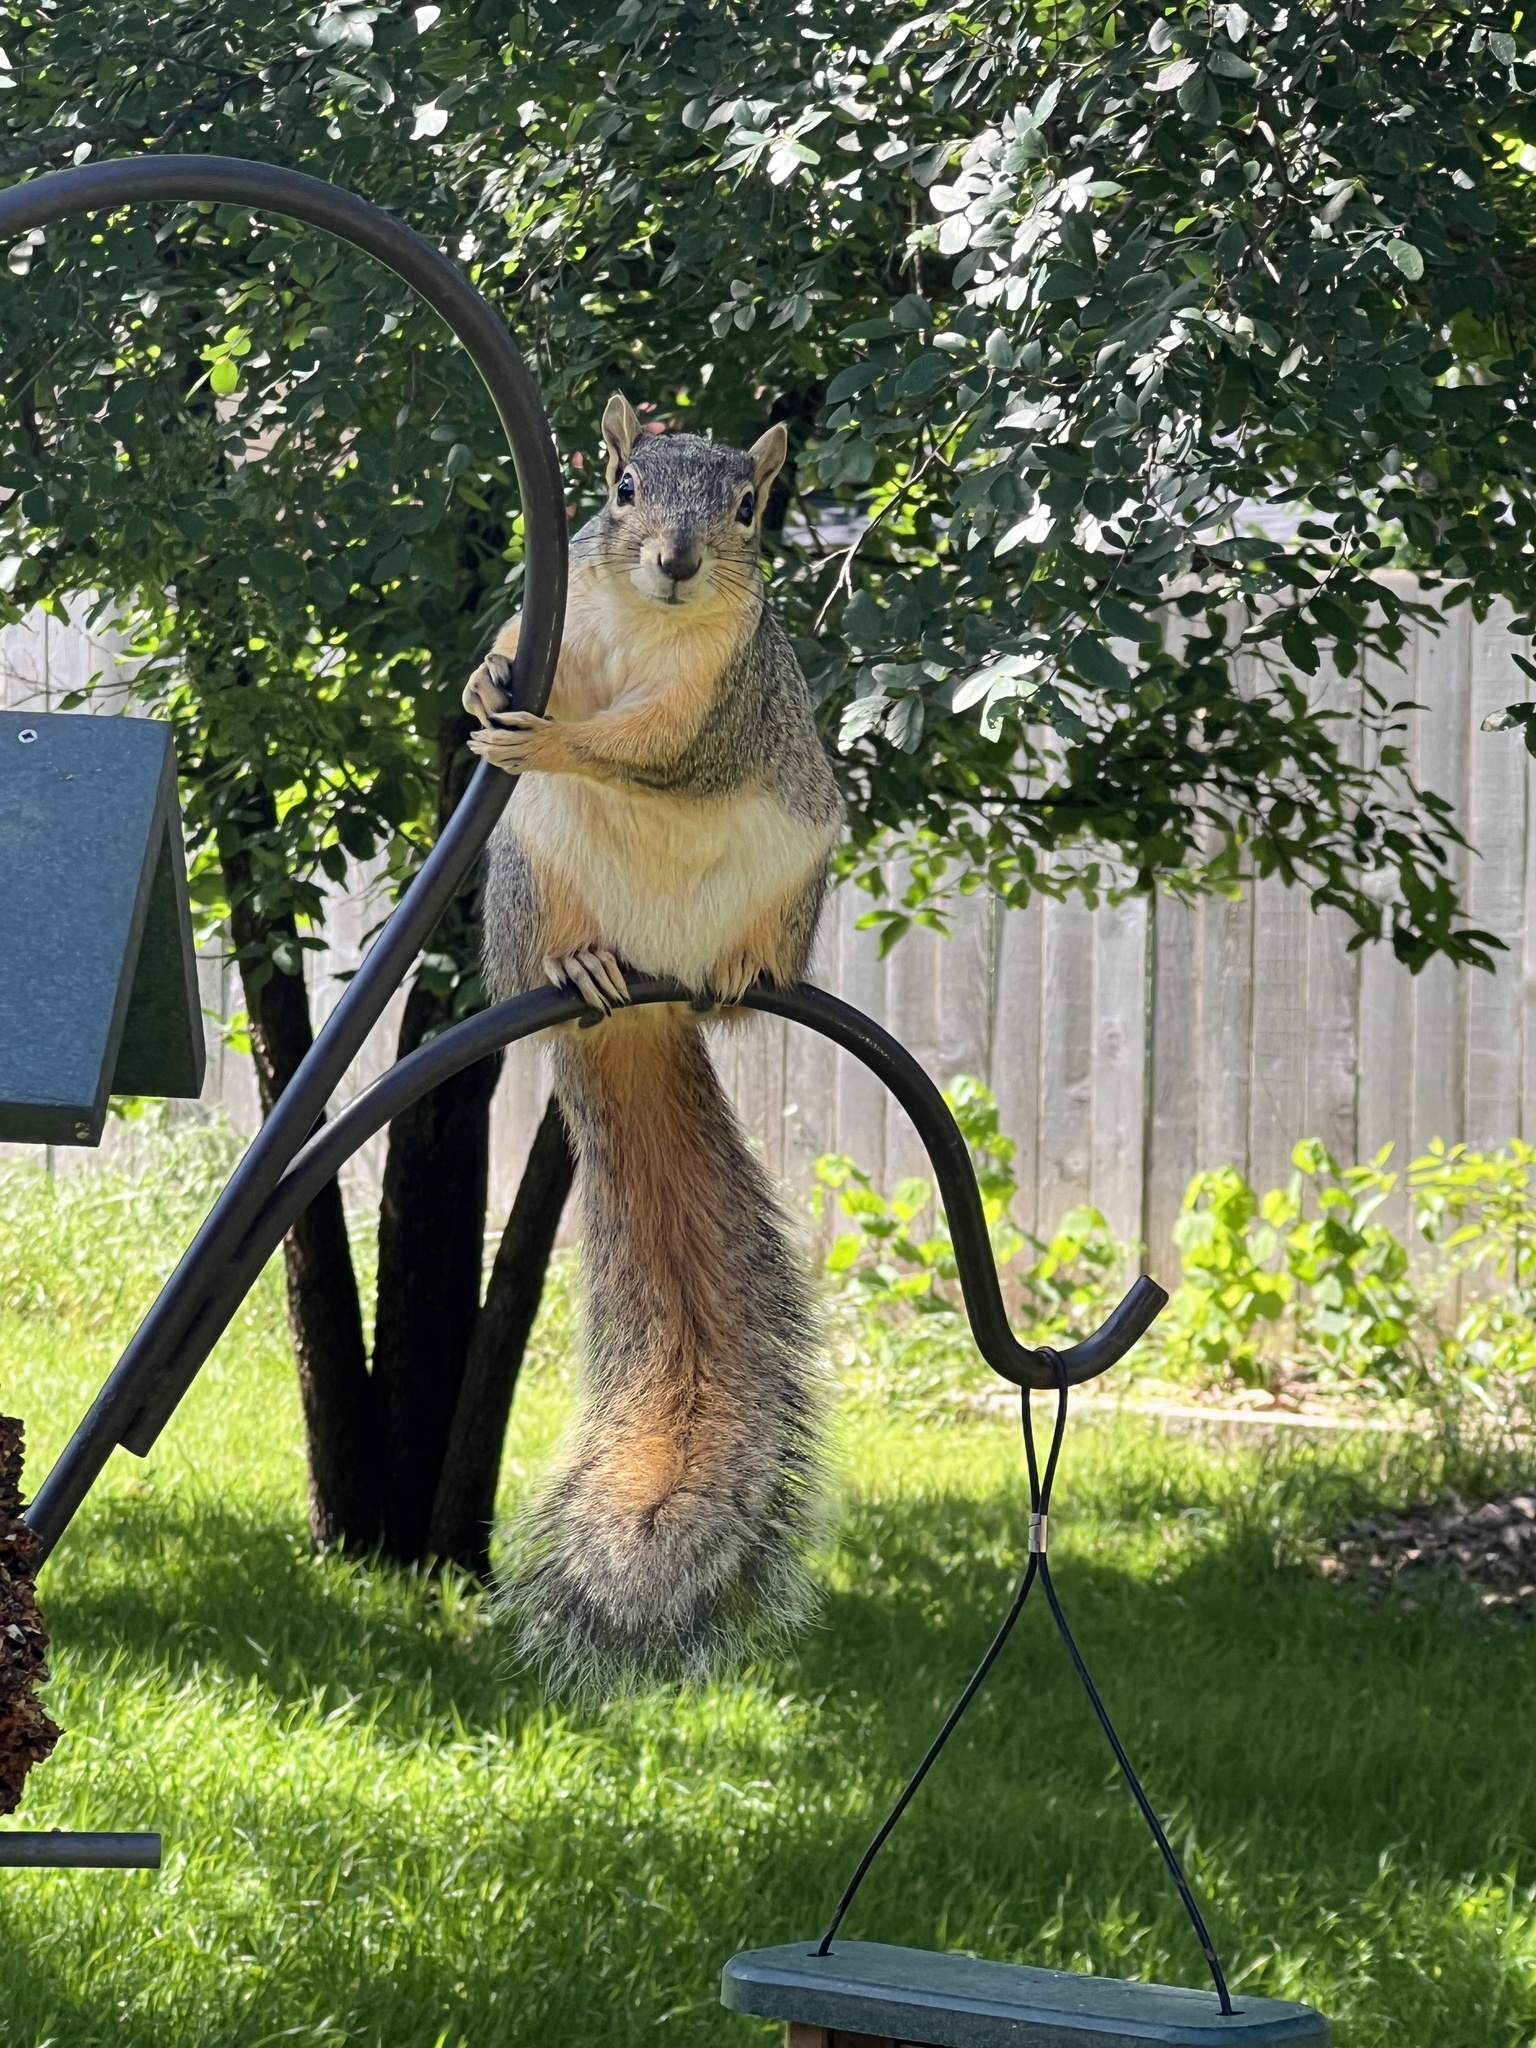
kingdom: Animalia
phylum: Chordata
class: Mammalia
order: Rodentia
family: Sciuridae
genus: Sciurus
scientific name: Sciurus niger
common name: Fox squirrel
